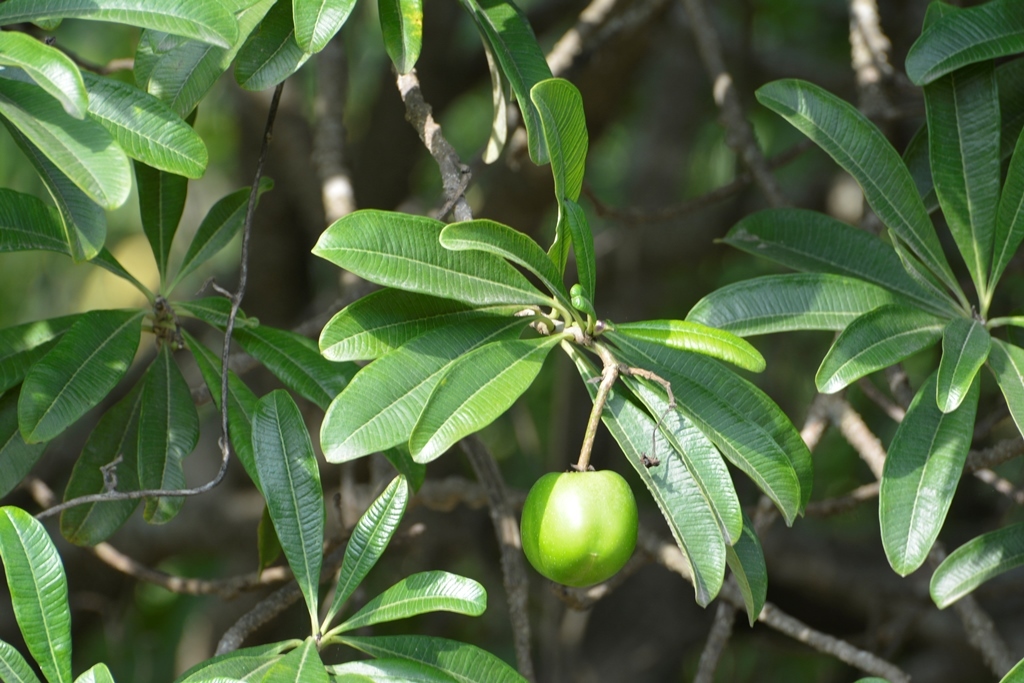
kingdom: Plantae
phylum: Tracheophyta
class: Magnoliopsida
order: Gentianales
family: Apocynaceae
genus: Cascabela
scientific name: Cascabela ovata
